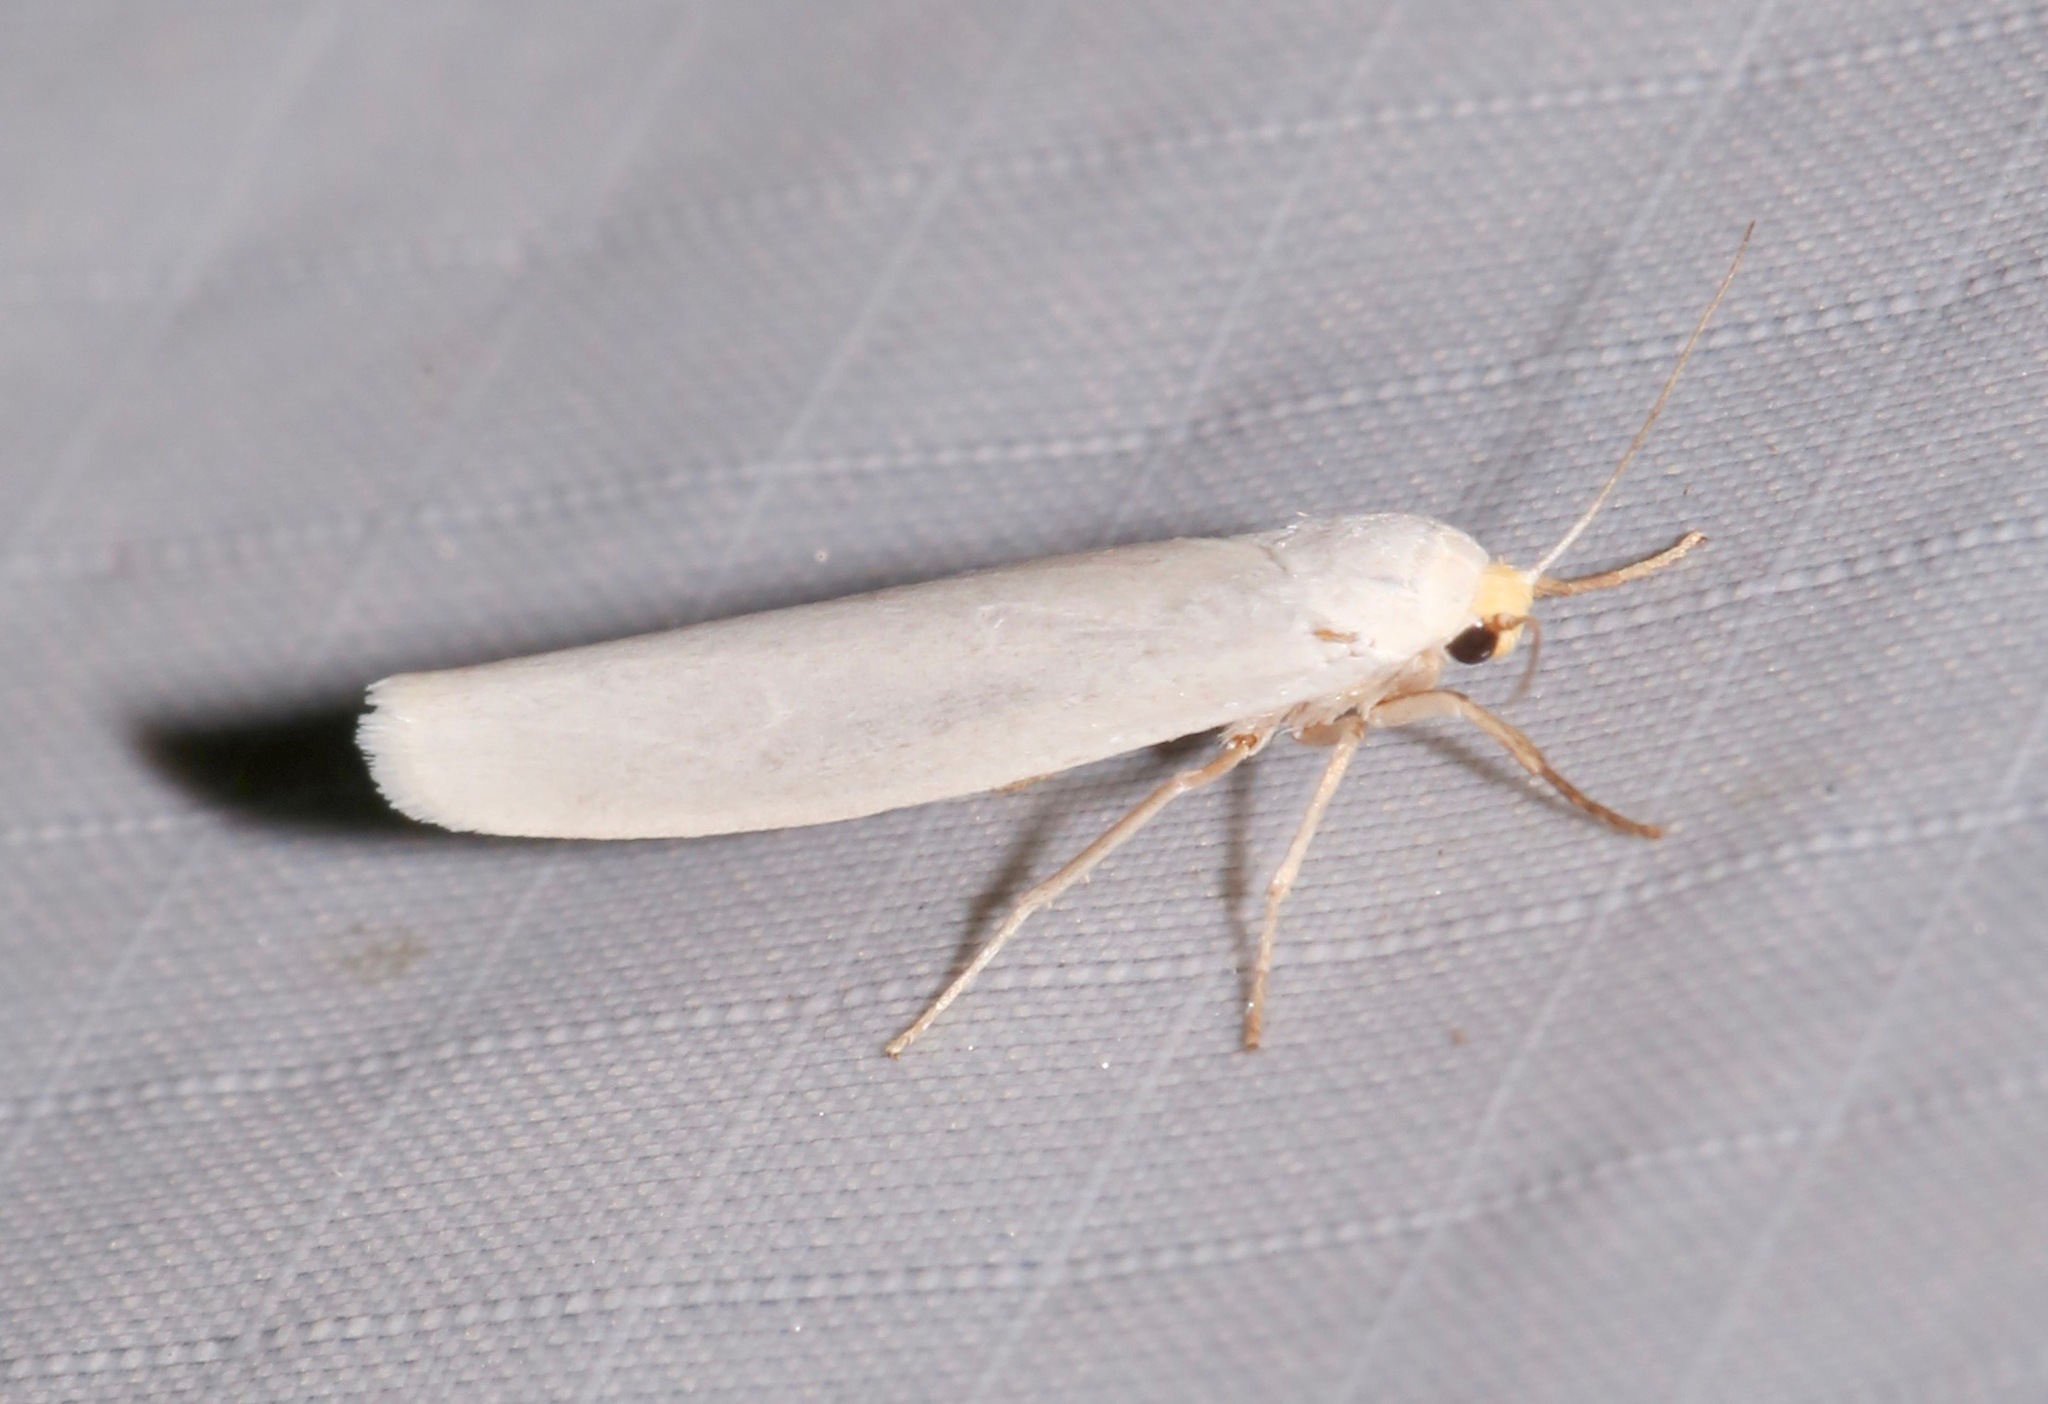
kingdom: Animalia
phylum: Arthropoda
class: Insecta
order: Lepidoptera
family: Erebidae
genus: Crambidia
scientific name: Crambidia cephalica
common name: Yellow-headed lichen moth
